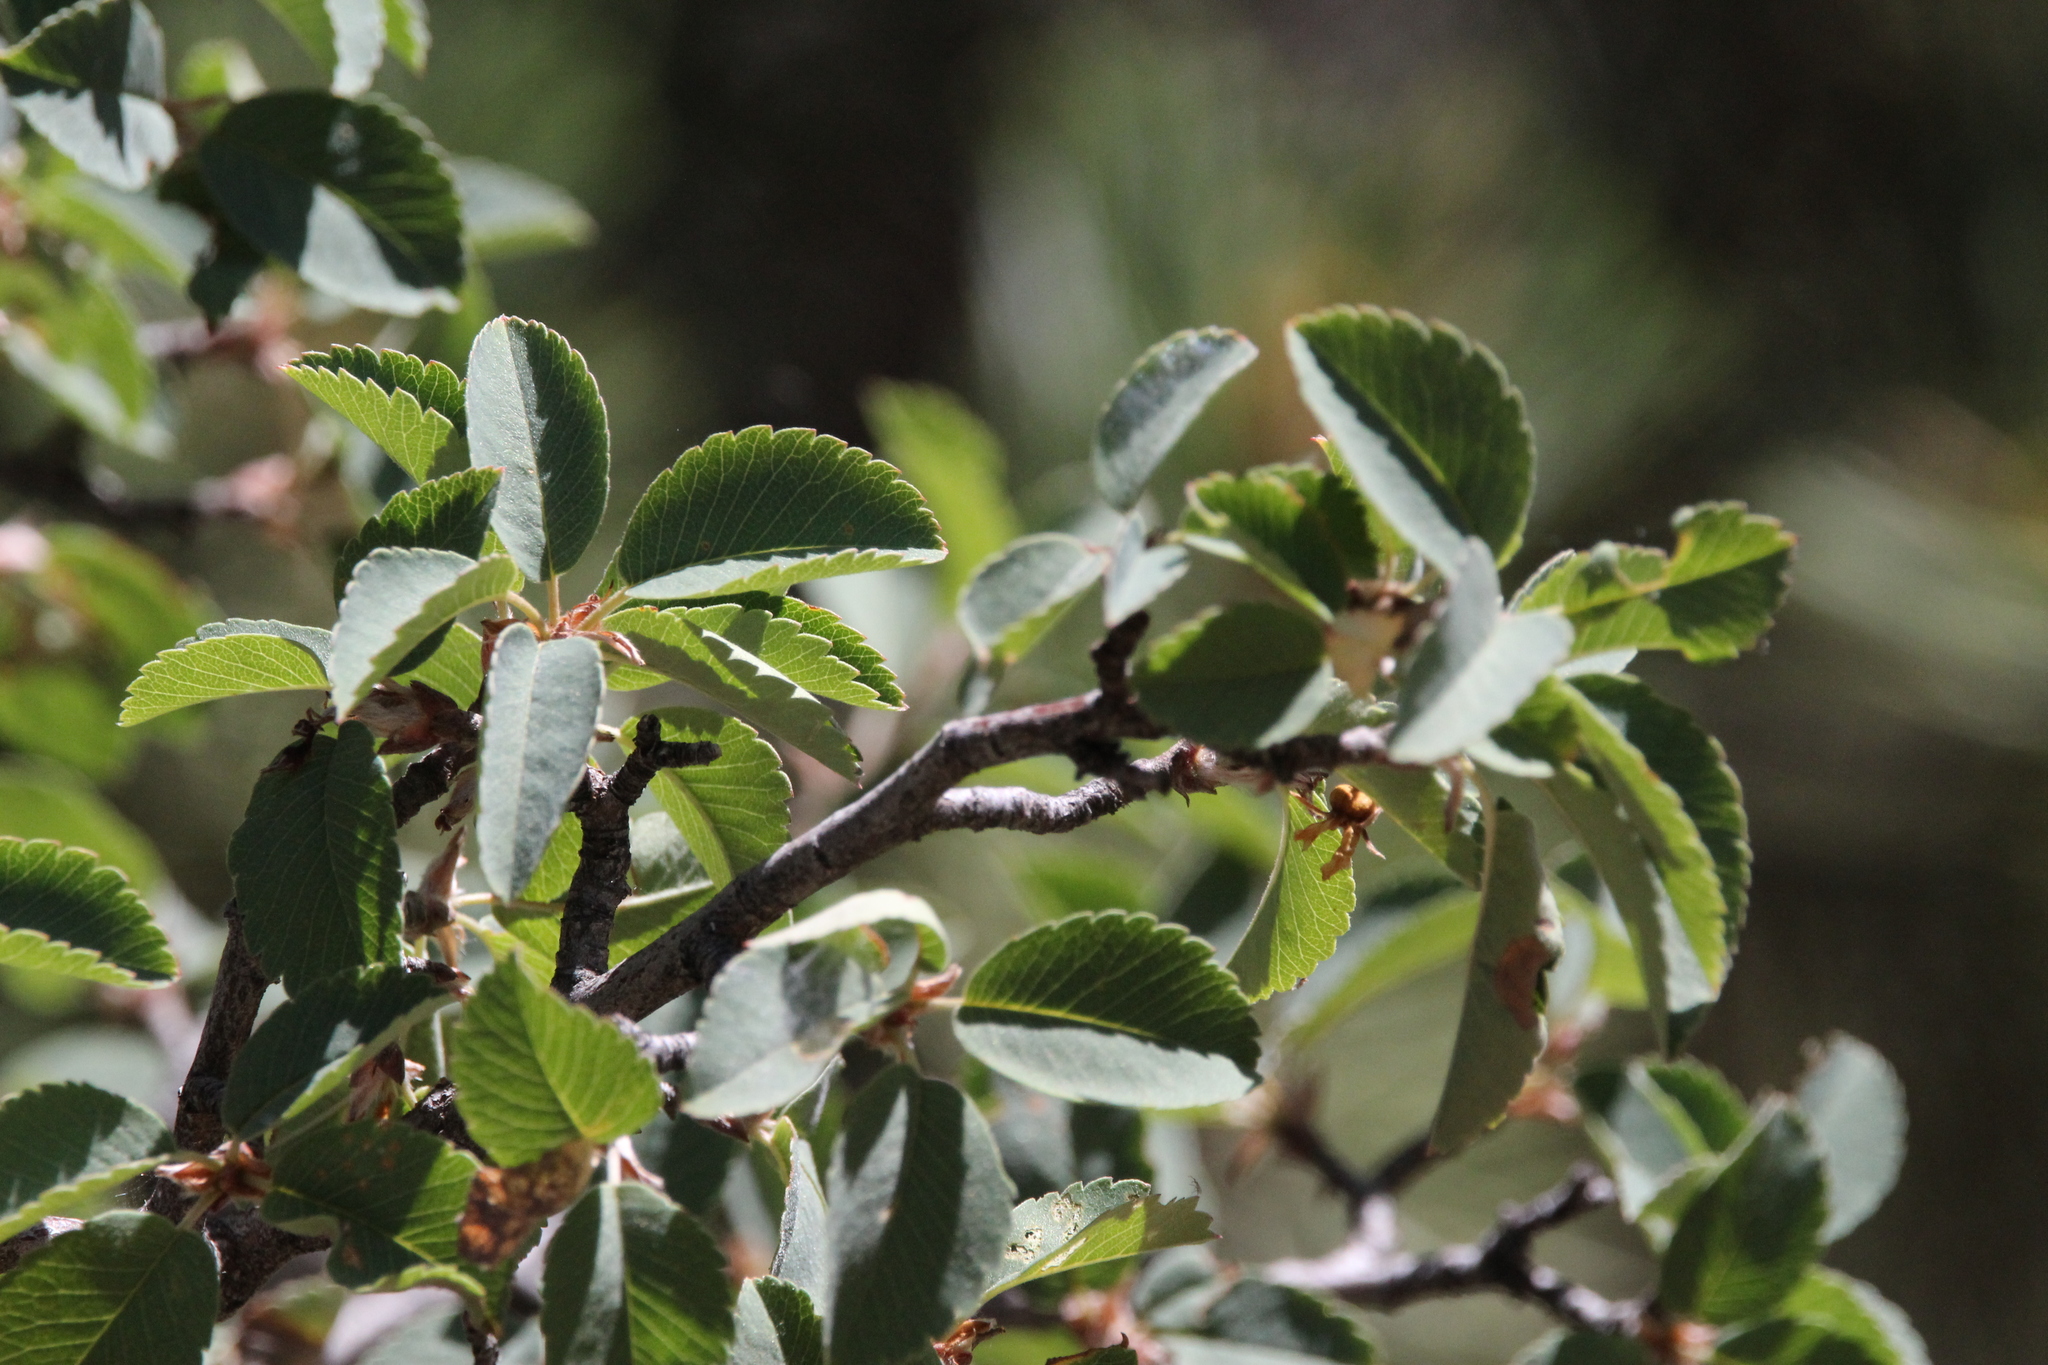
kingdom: Plantae
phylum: Tracheophyta
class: Magnoliopsida
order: Rosales
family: Rosaceae
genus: Amelanchier
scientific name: Amelanchier utahensis
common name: Utah serviceberry
